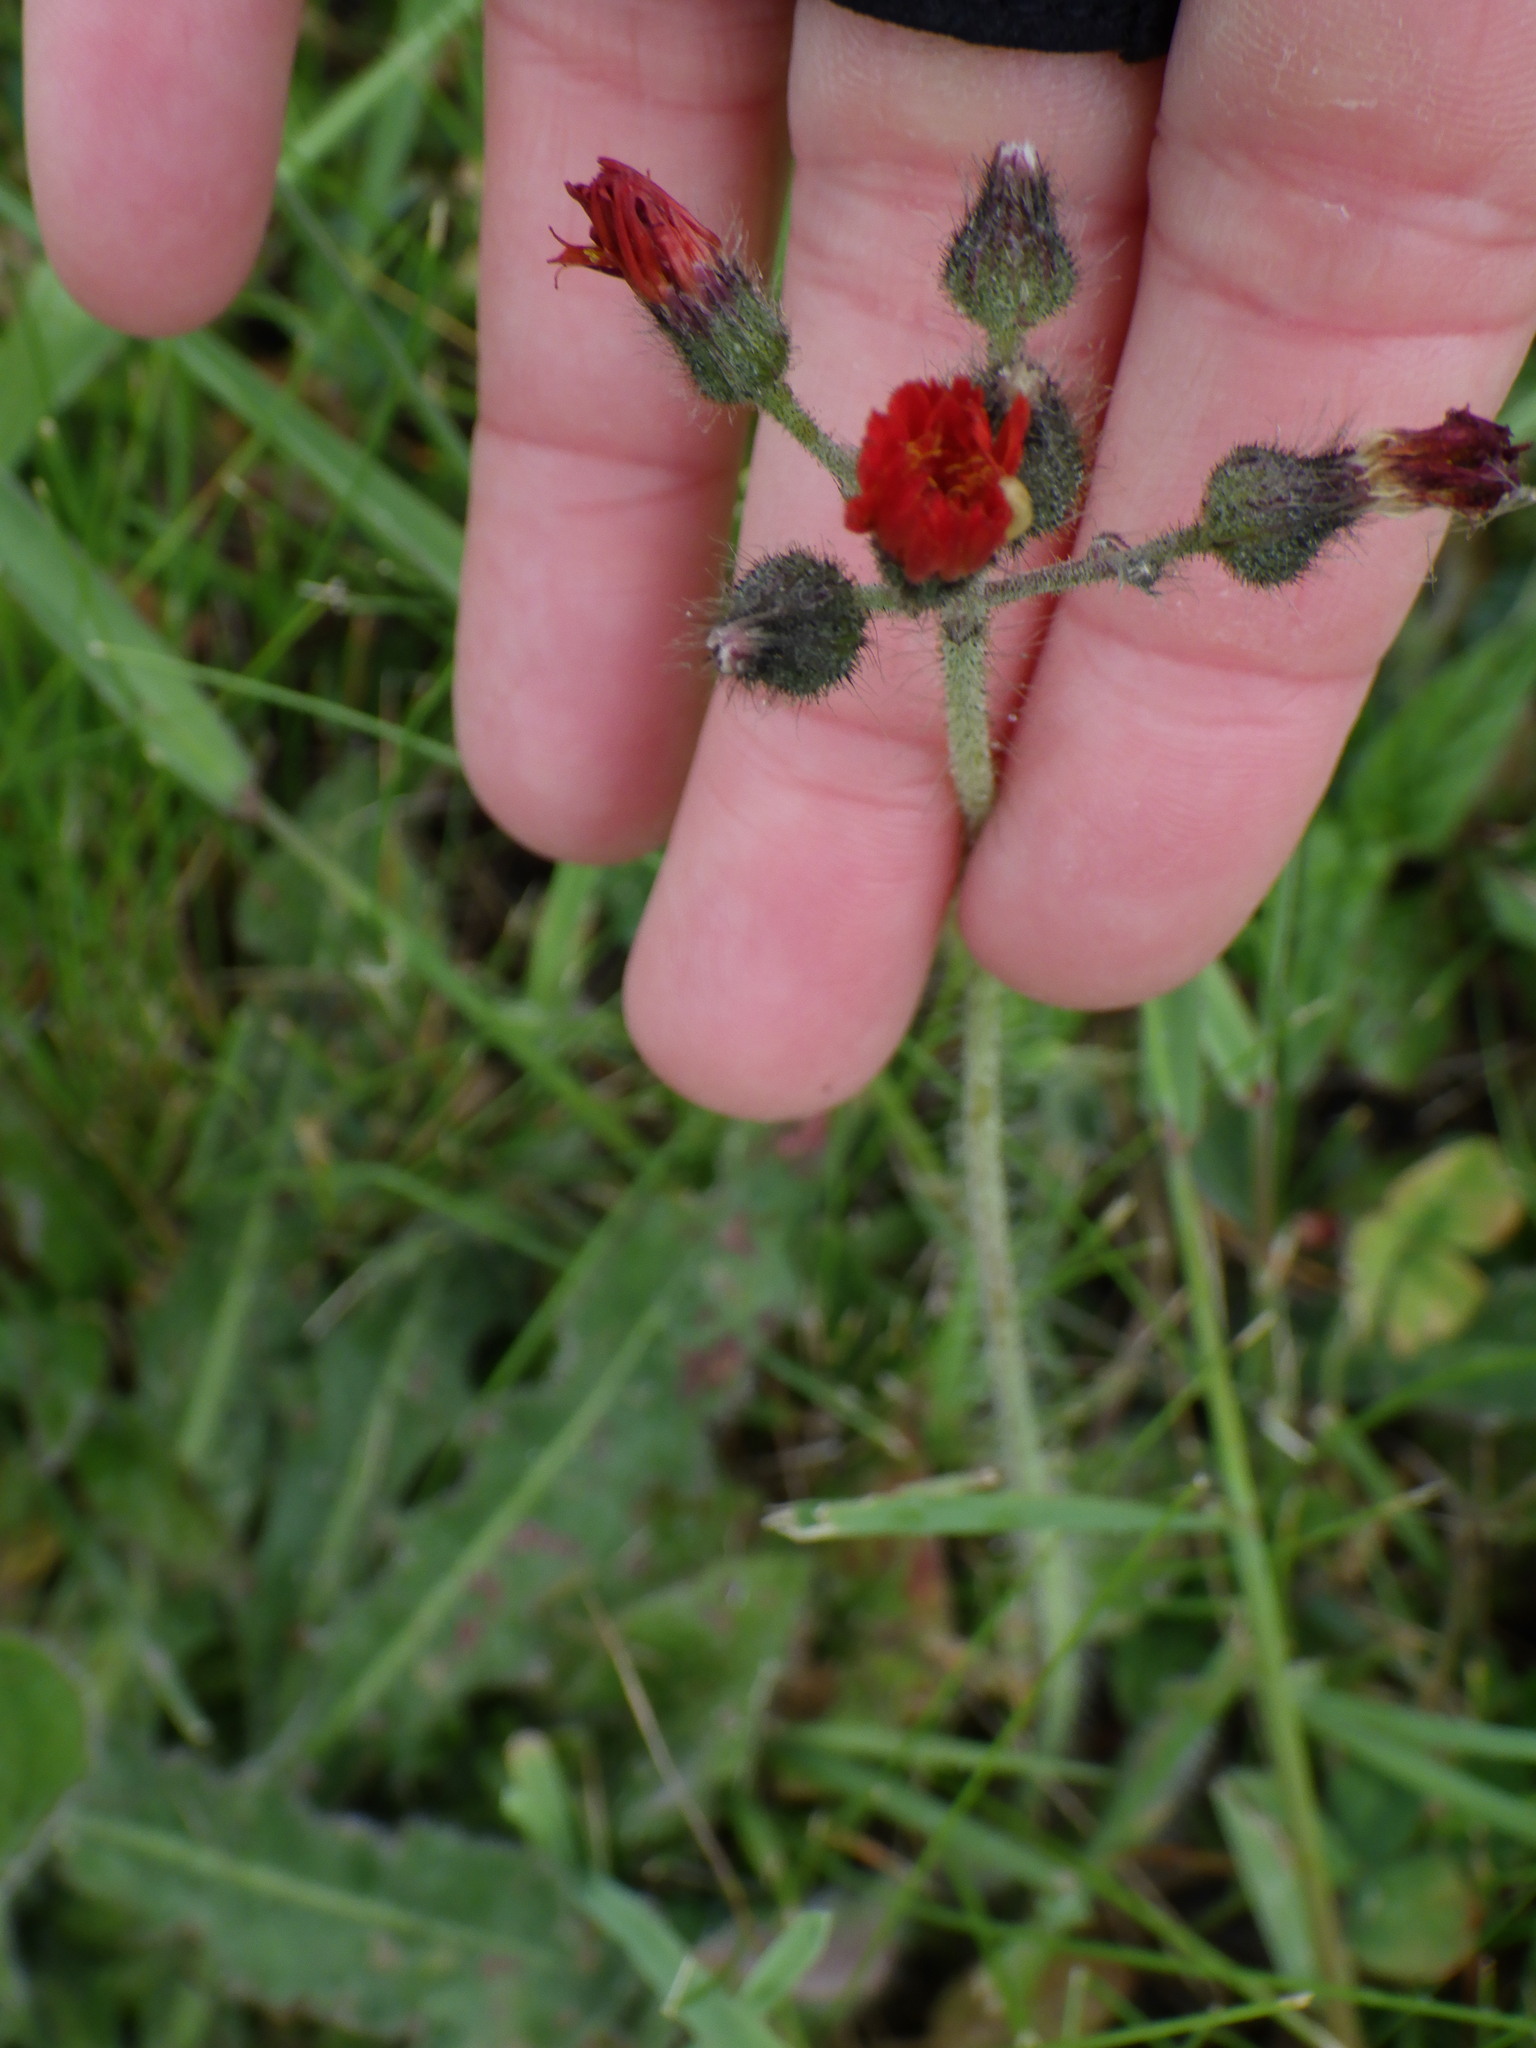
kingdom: Plantae
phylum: Tracheophyta
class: Magnoliopsida
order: Asterales
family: Asteraceae
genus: Pilosella
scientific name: Pilosella aurantiaca
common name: Fox-and-cubs
